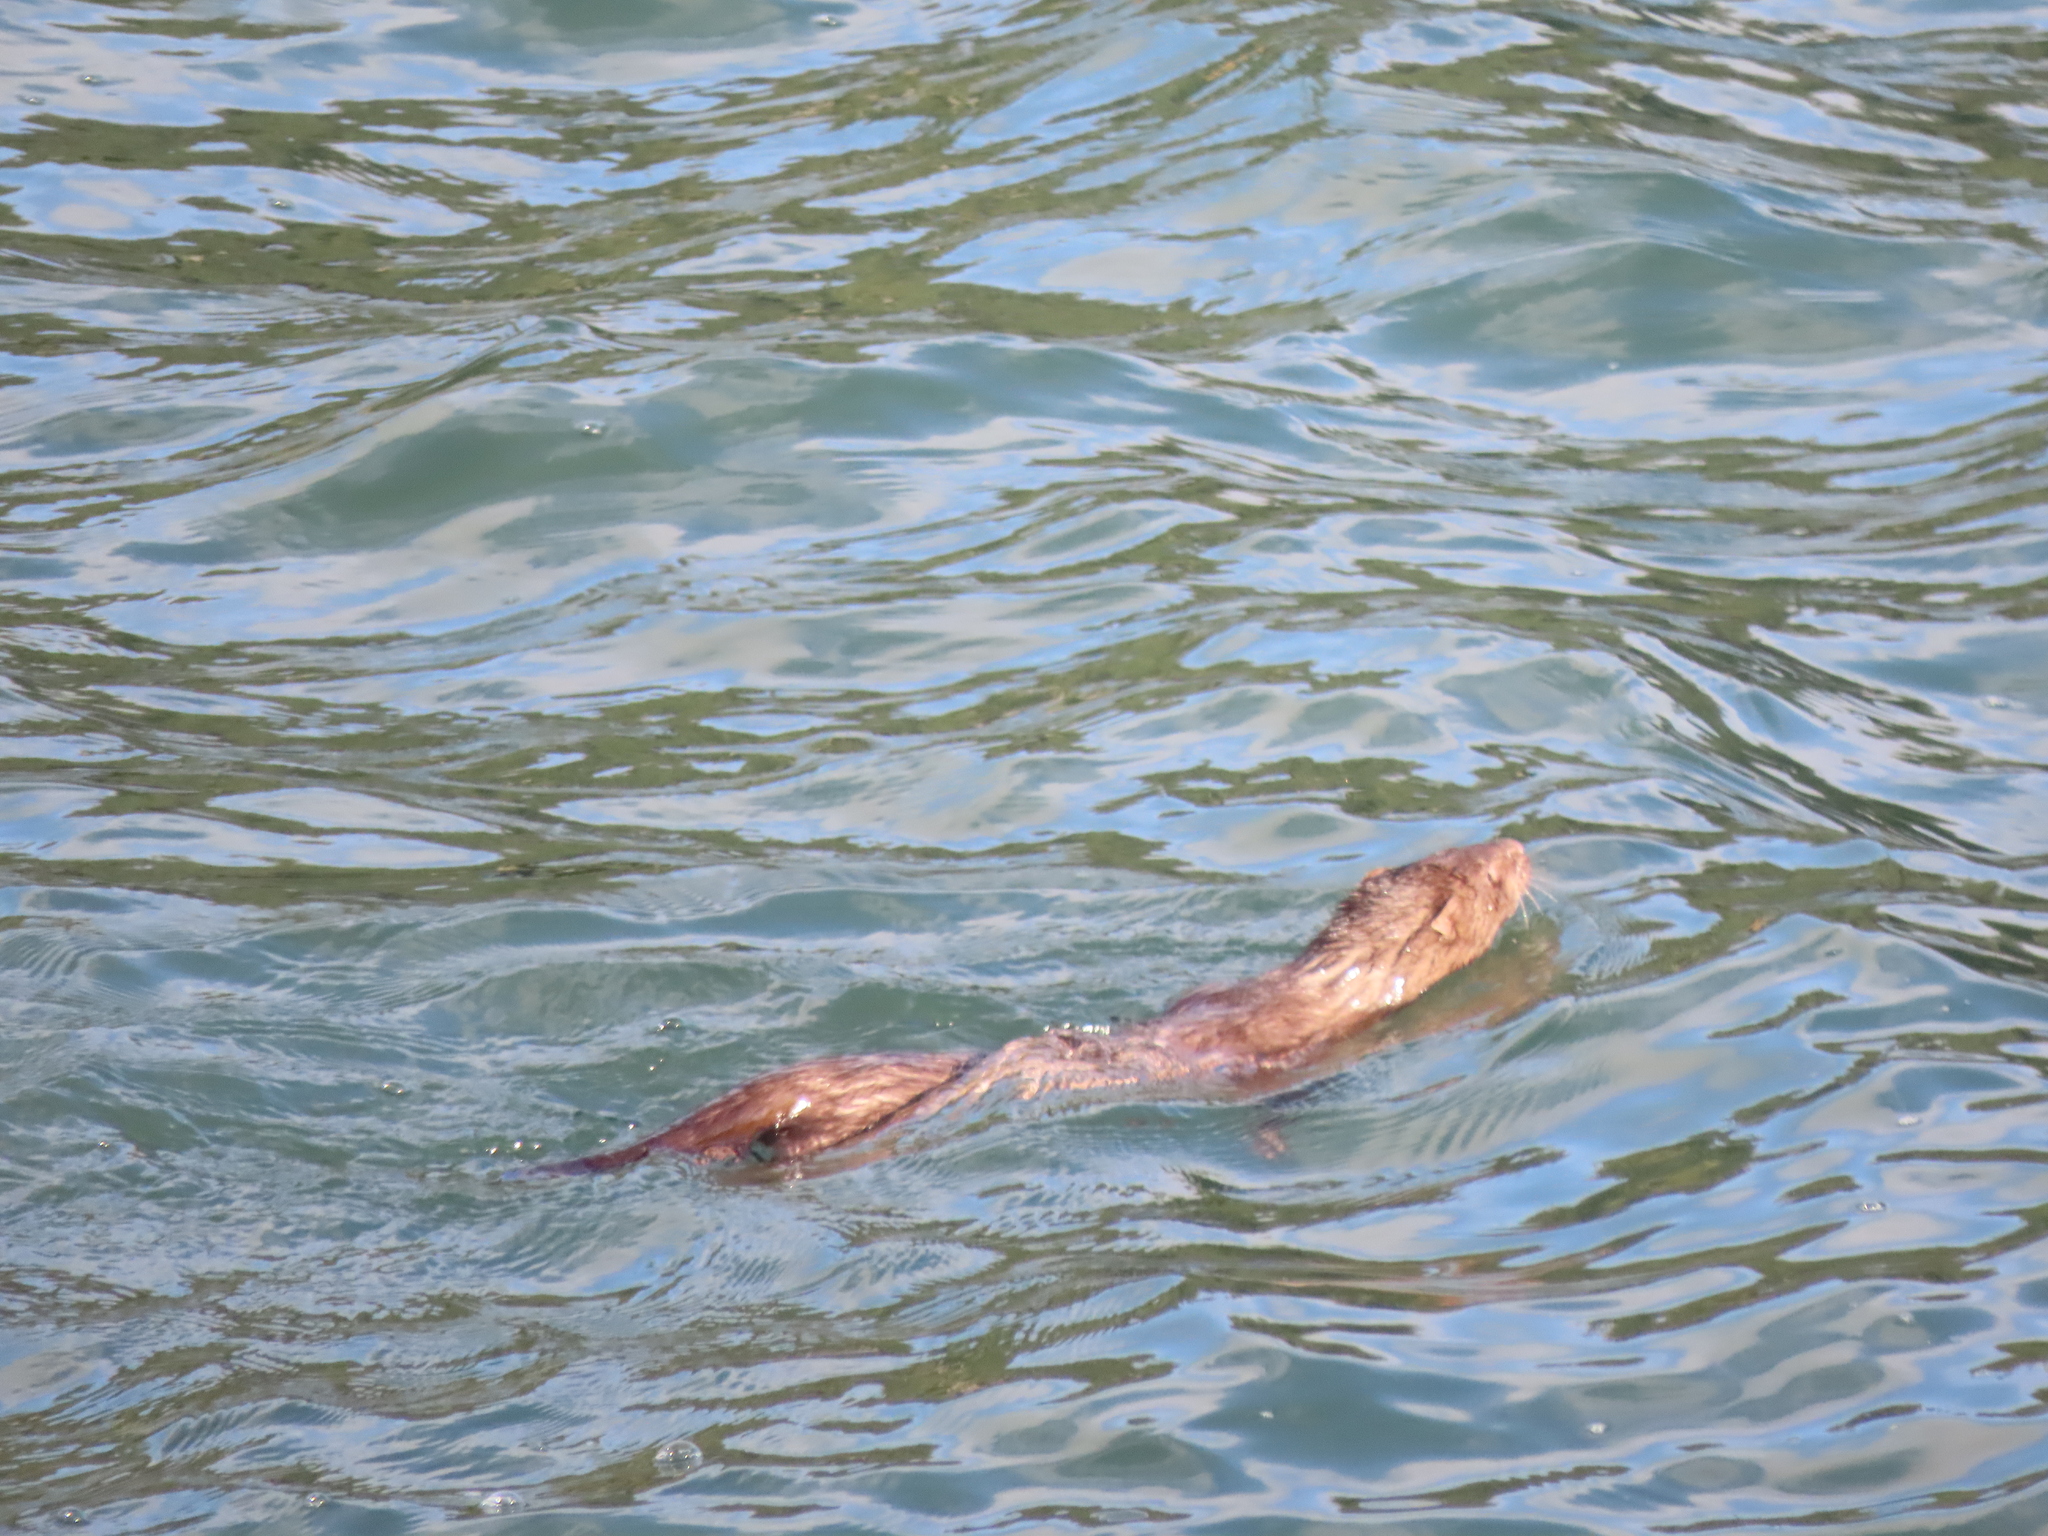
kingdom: Animalia
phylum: Chordata
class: Mammalia
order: Carnivora
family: Mustelidae
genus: Mustela
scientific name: Mustela
